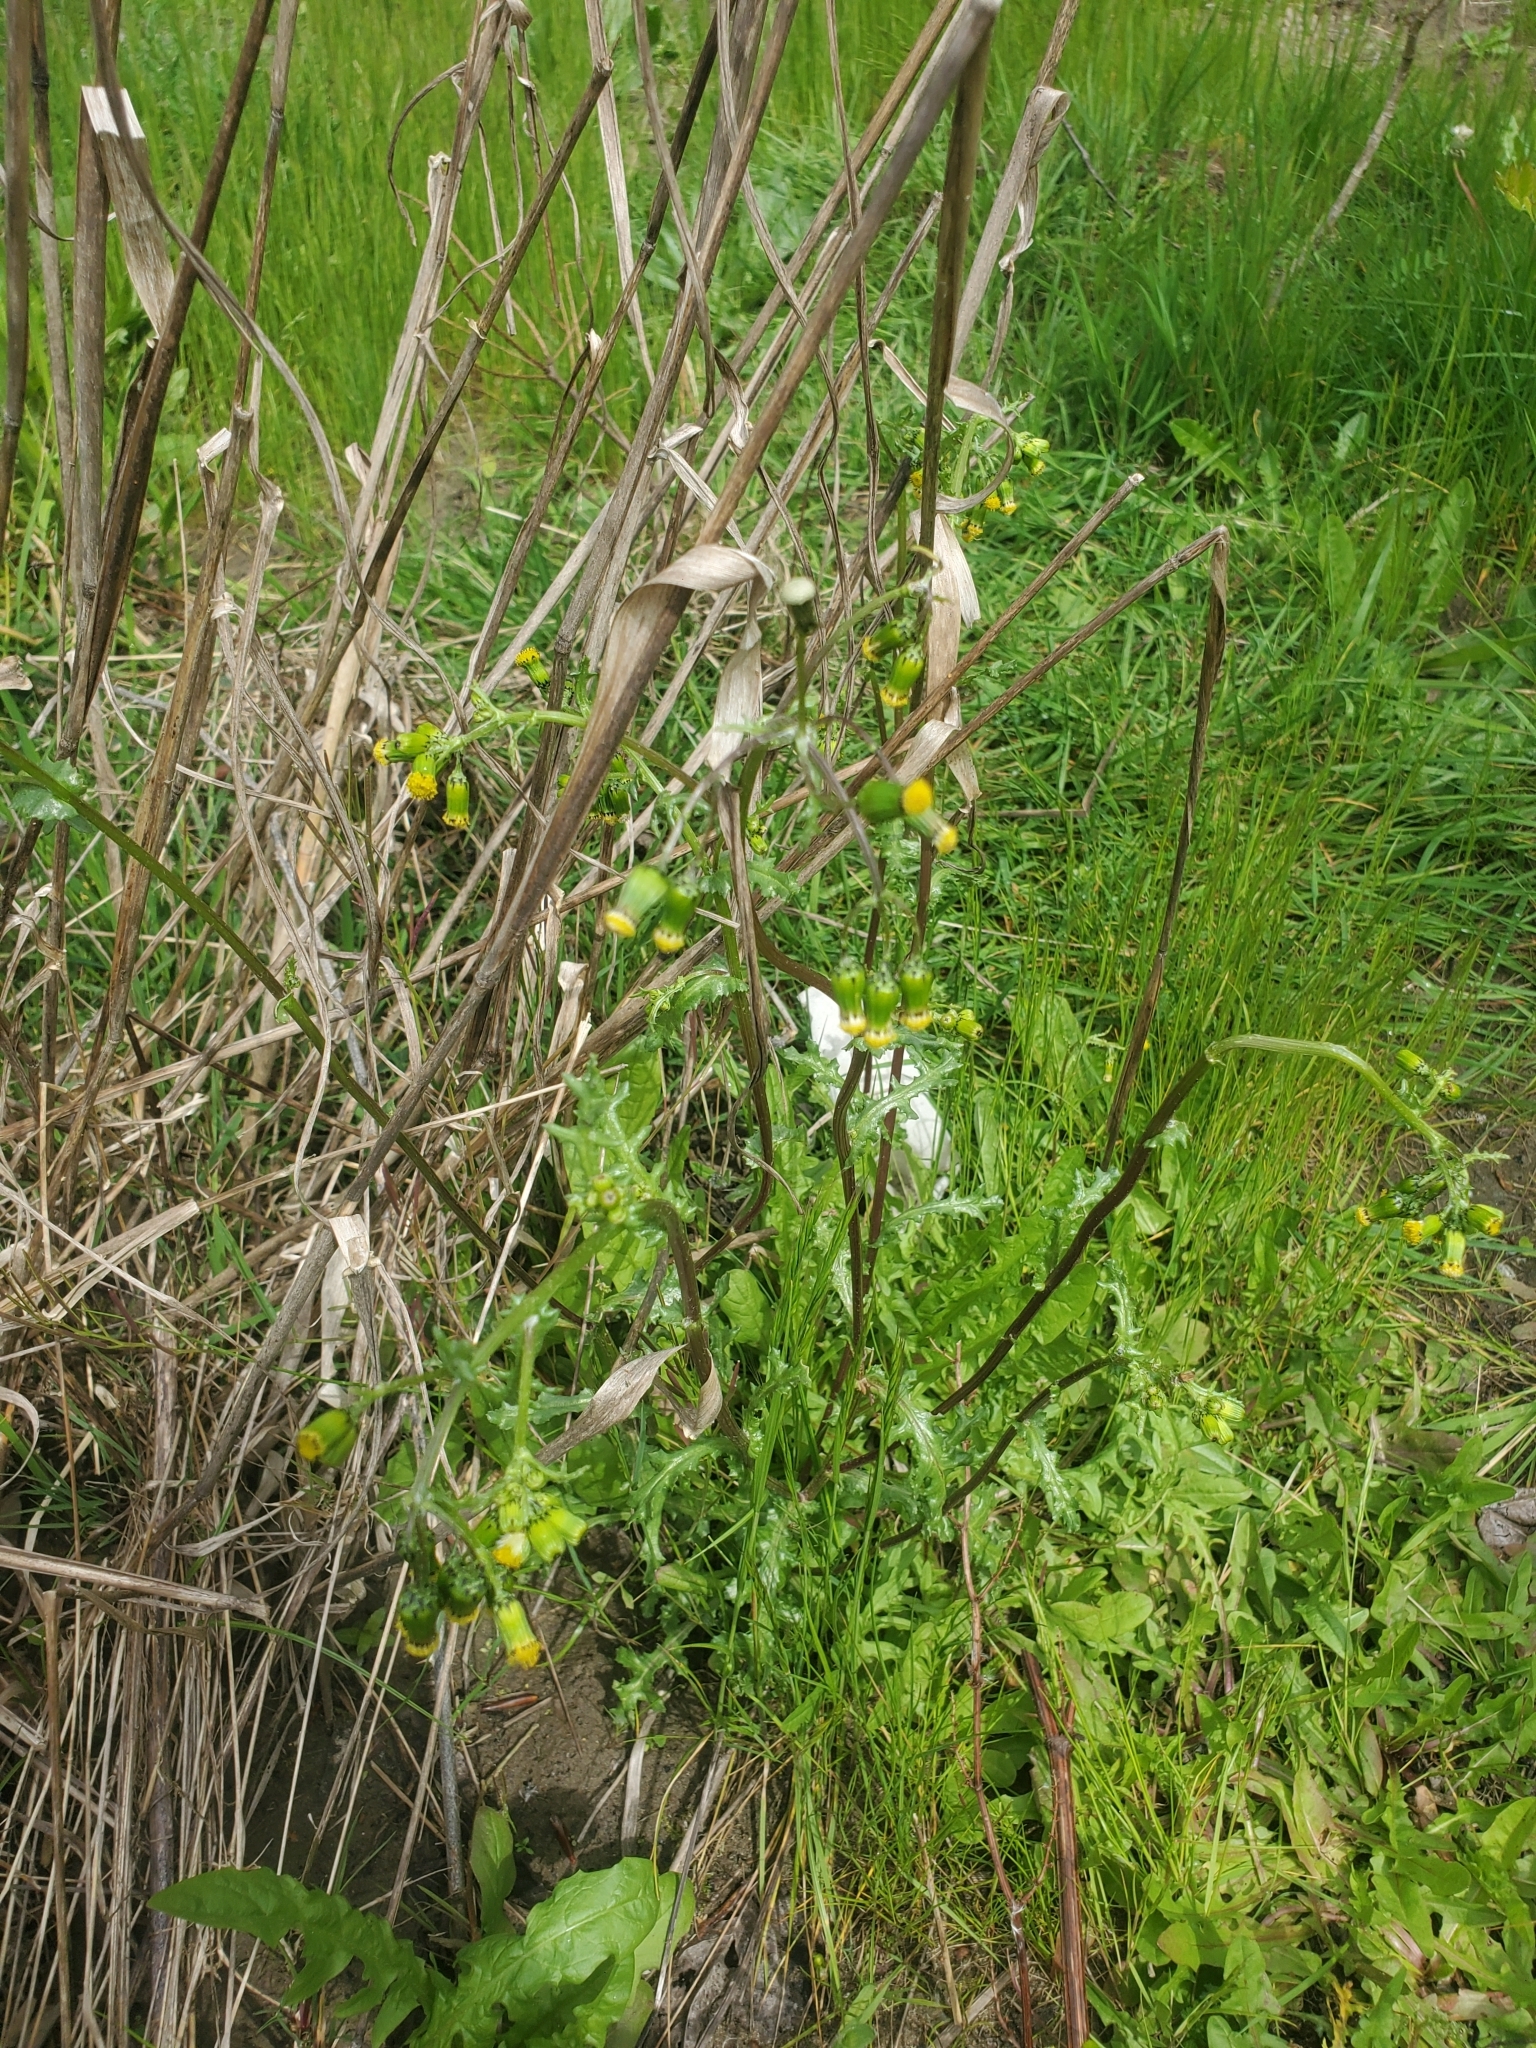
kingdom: Plantae
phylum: Tracheophyta
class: Magnoliopsida
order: Asterales
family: Asteraceae
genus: Senecio
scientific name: Senecio vulgaris
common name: Old-man-in-the-spring
